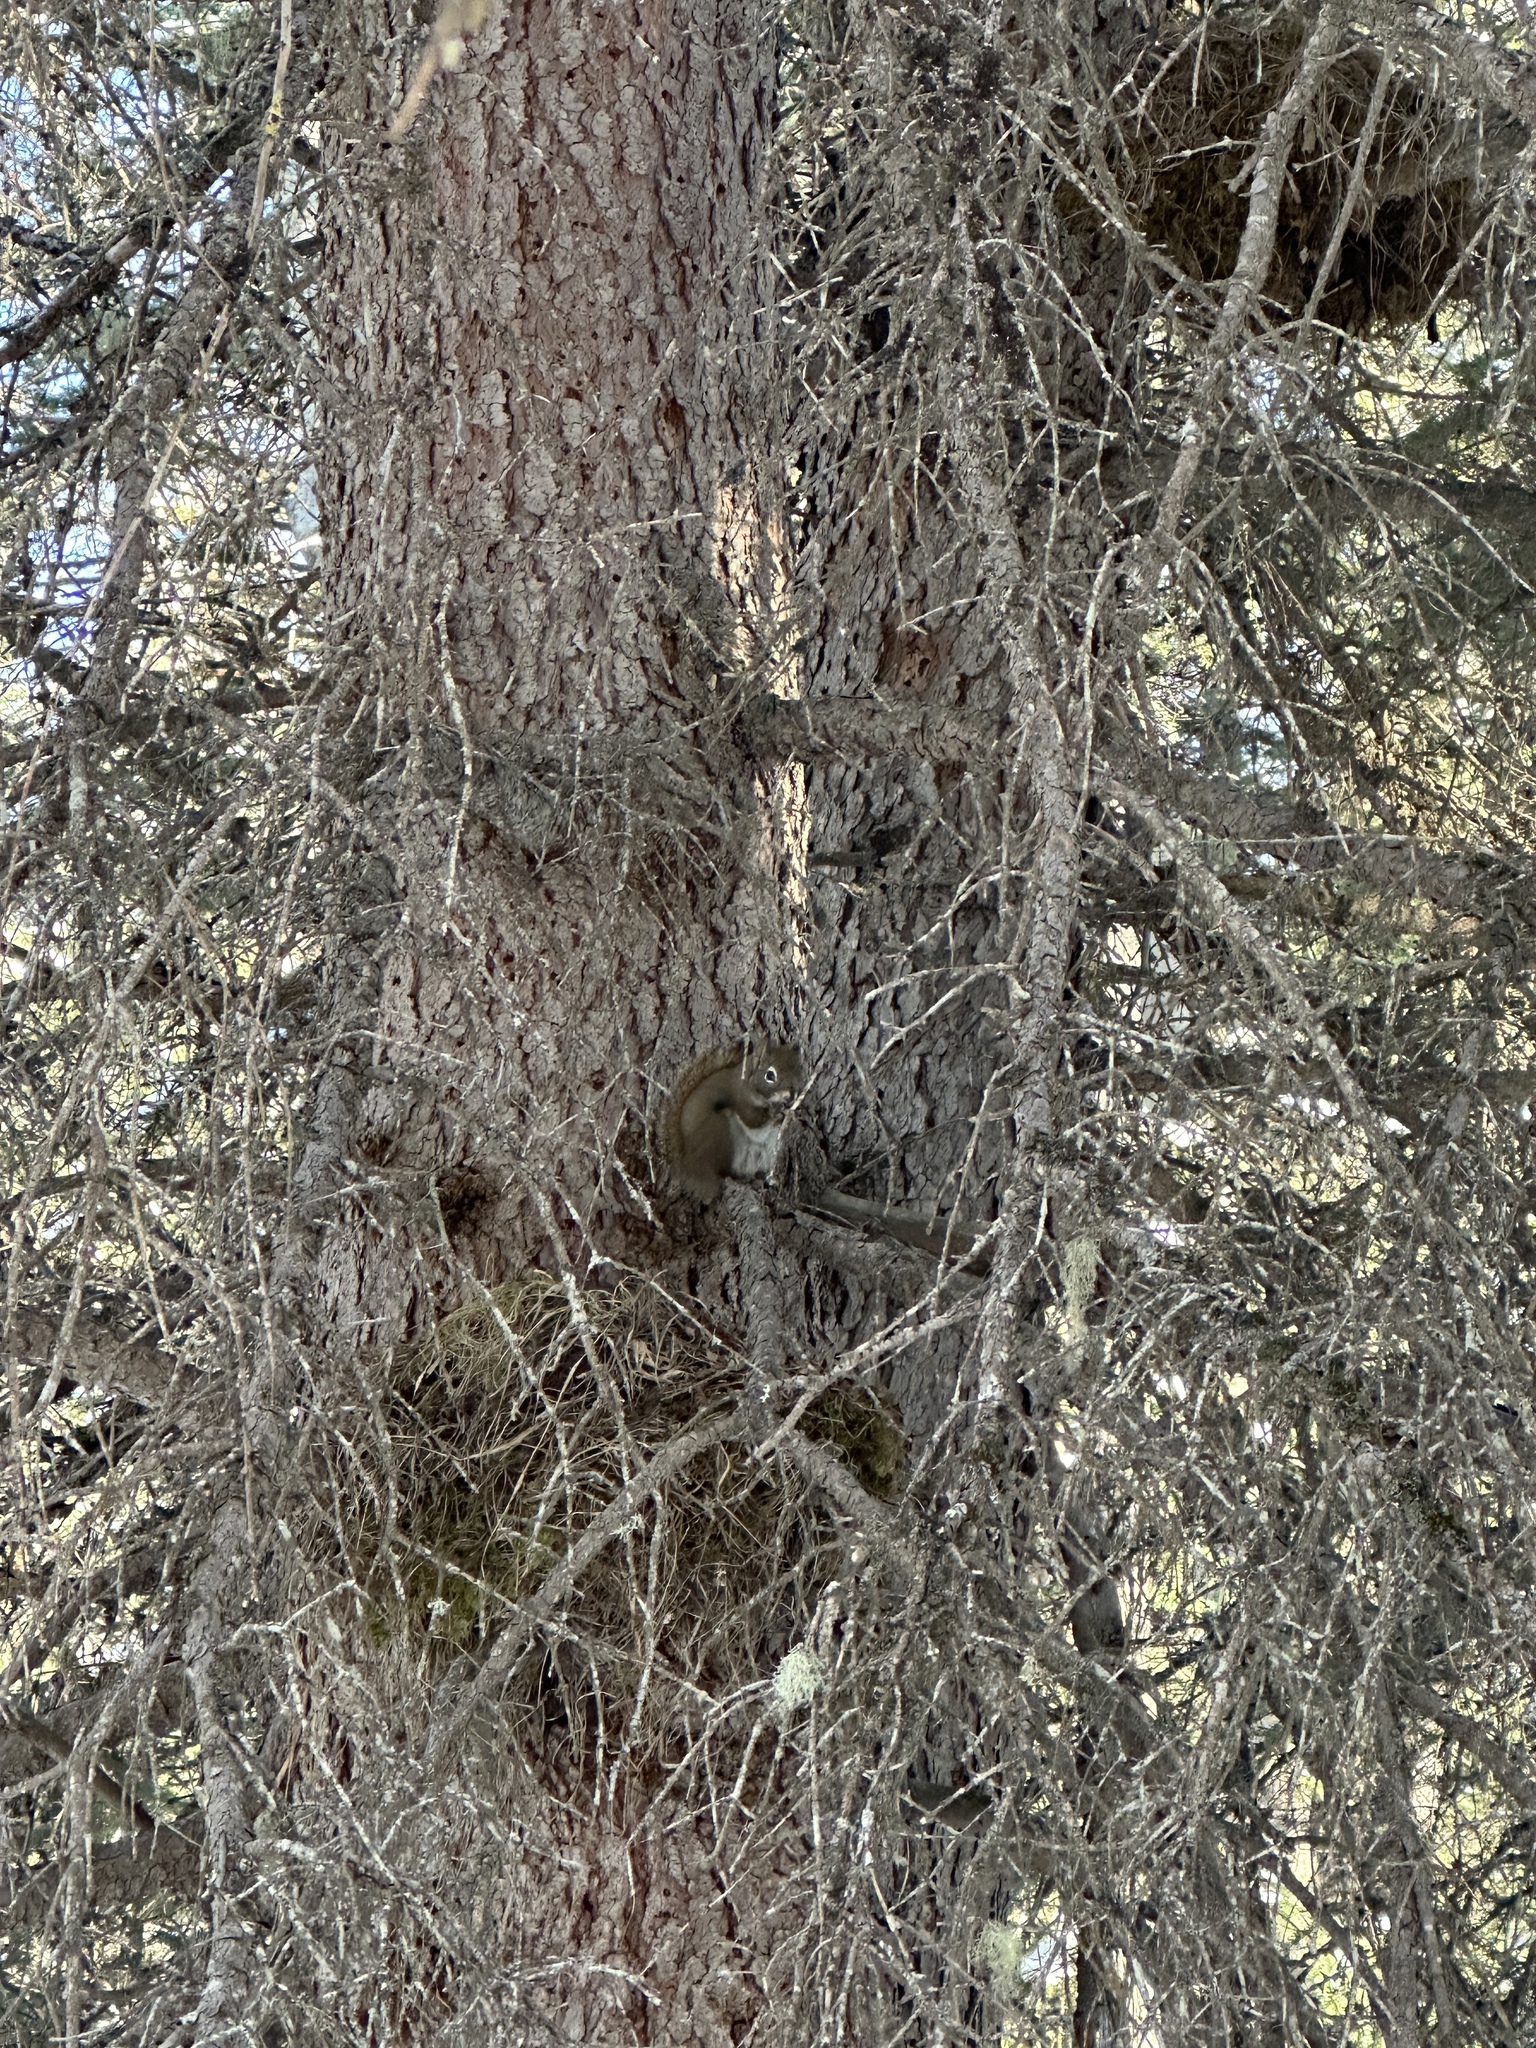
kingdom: Animalia
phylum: Chordata
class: Mammalia
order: Rodentia
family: Sciuridae
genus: Tamiasciurus
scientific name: Tamiasciurus hudsonicus
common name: Red squirrel
